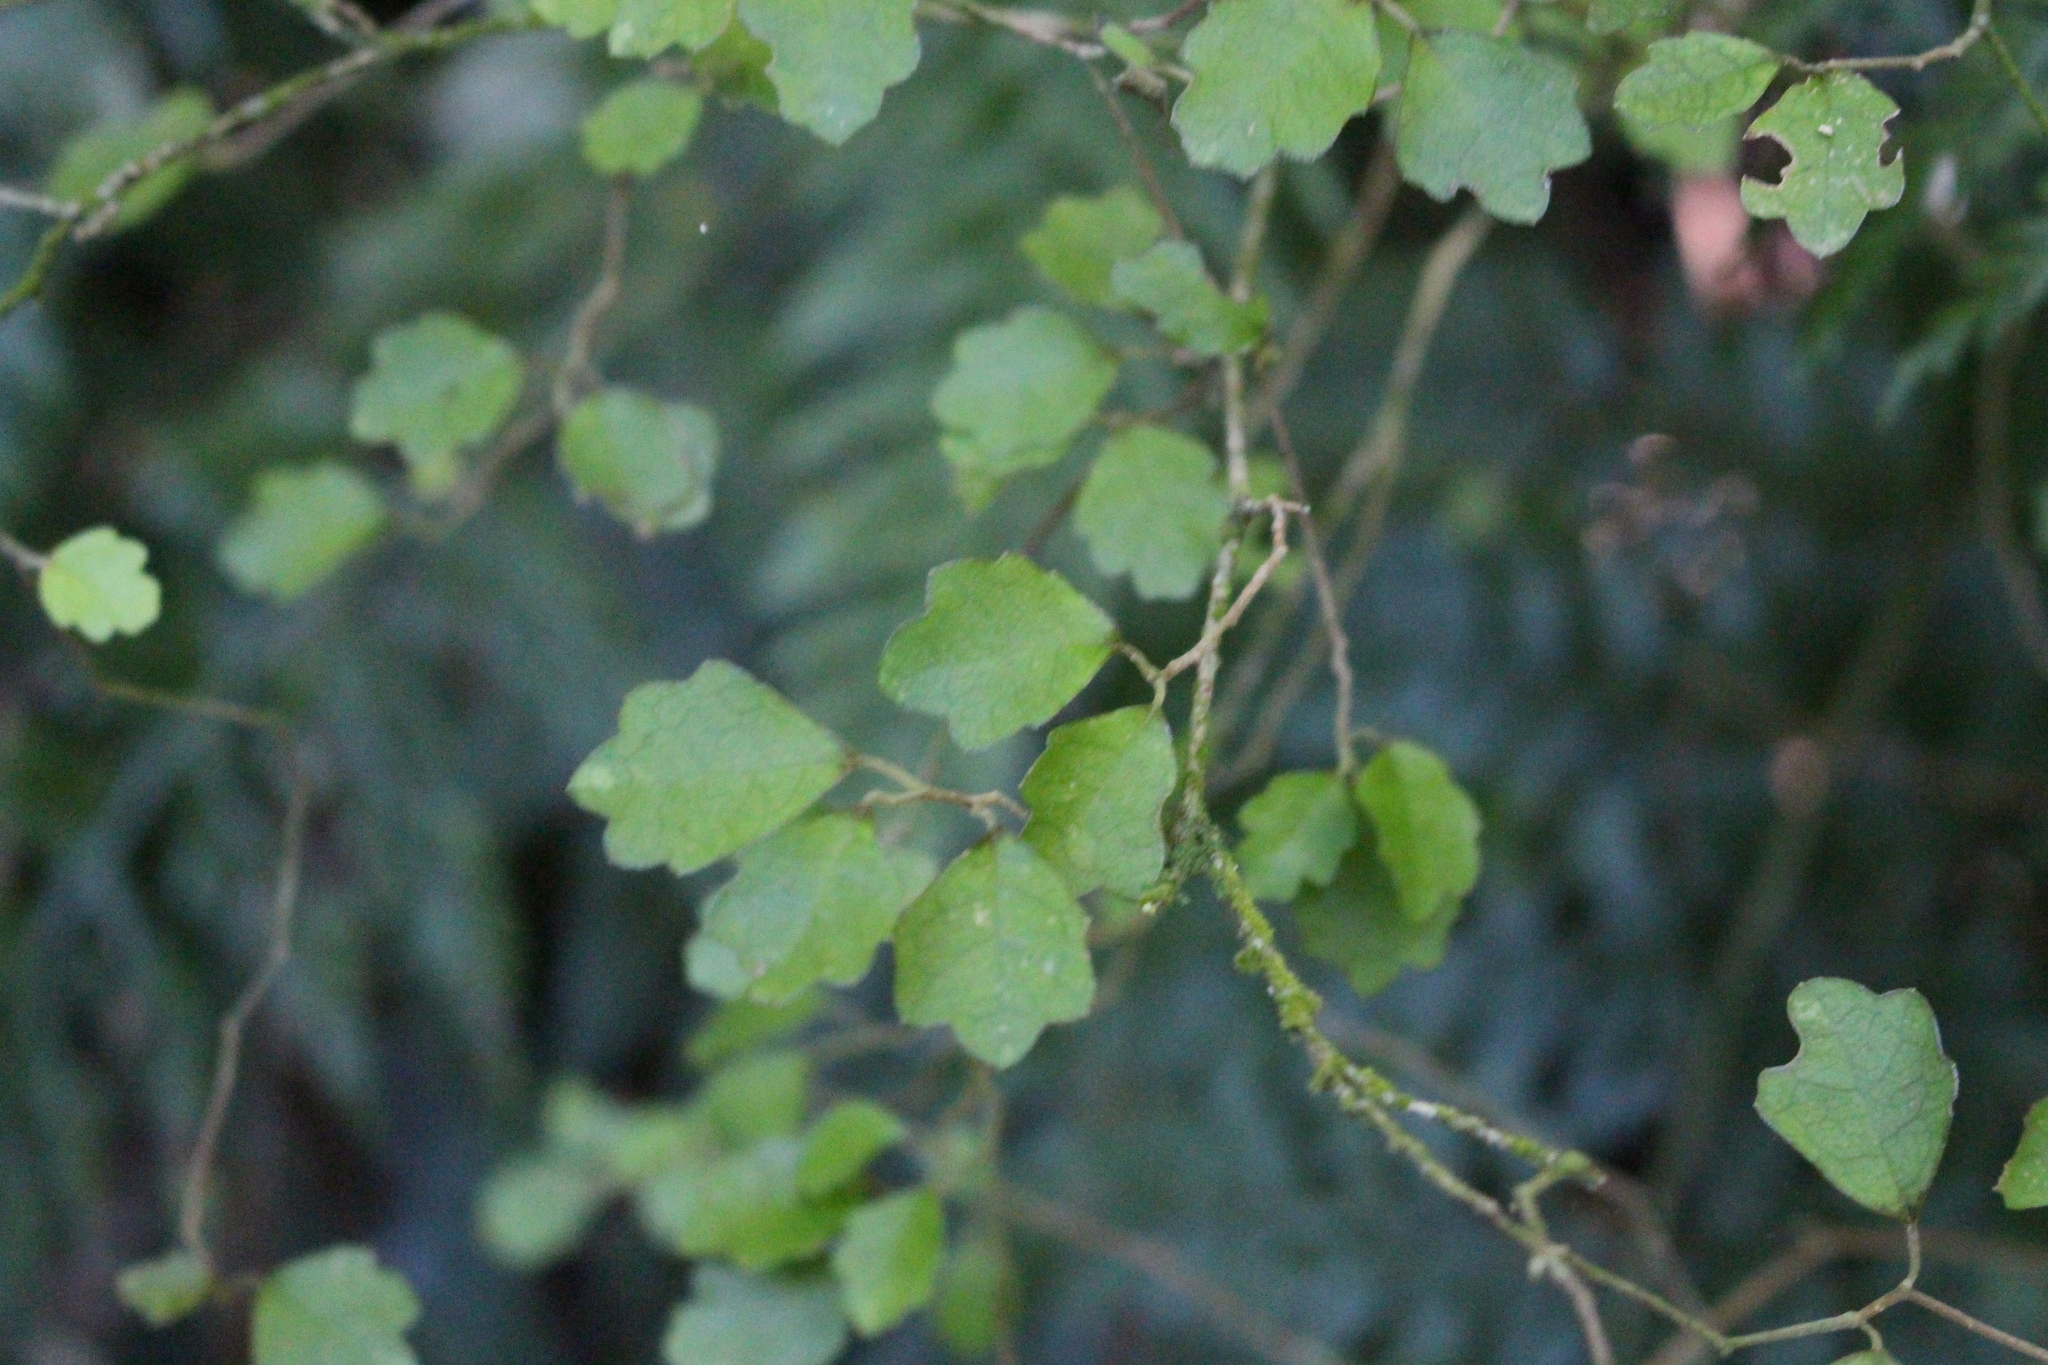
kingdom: Plantae
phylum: Tracheophyta
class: Magnoliopsida
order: Apiales
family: Pennantiaceae
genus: Pennantia
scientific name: Pennantia corymbosa
